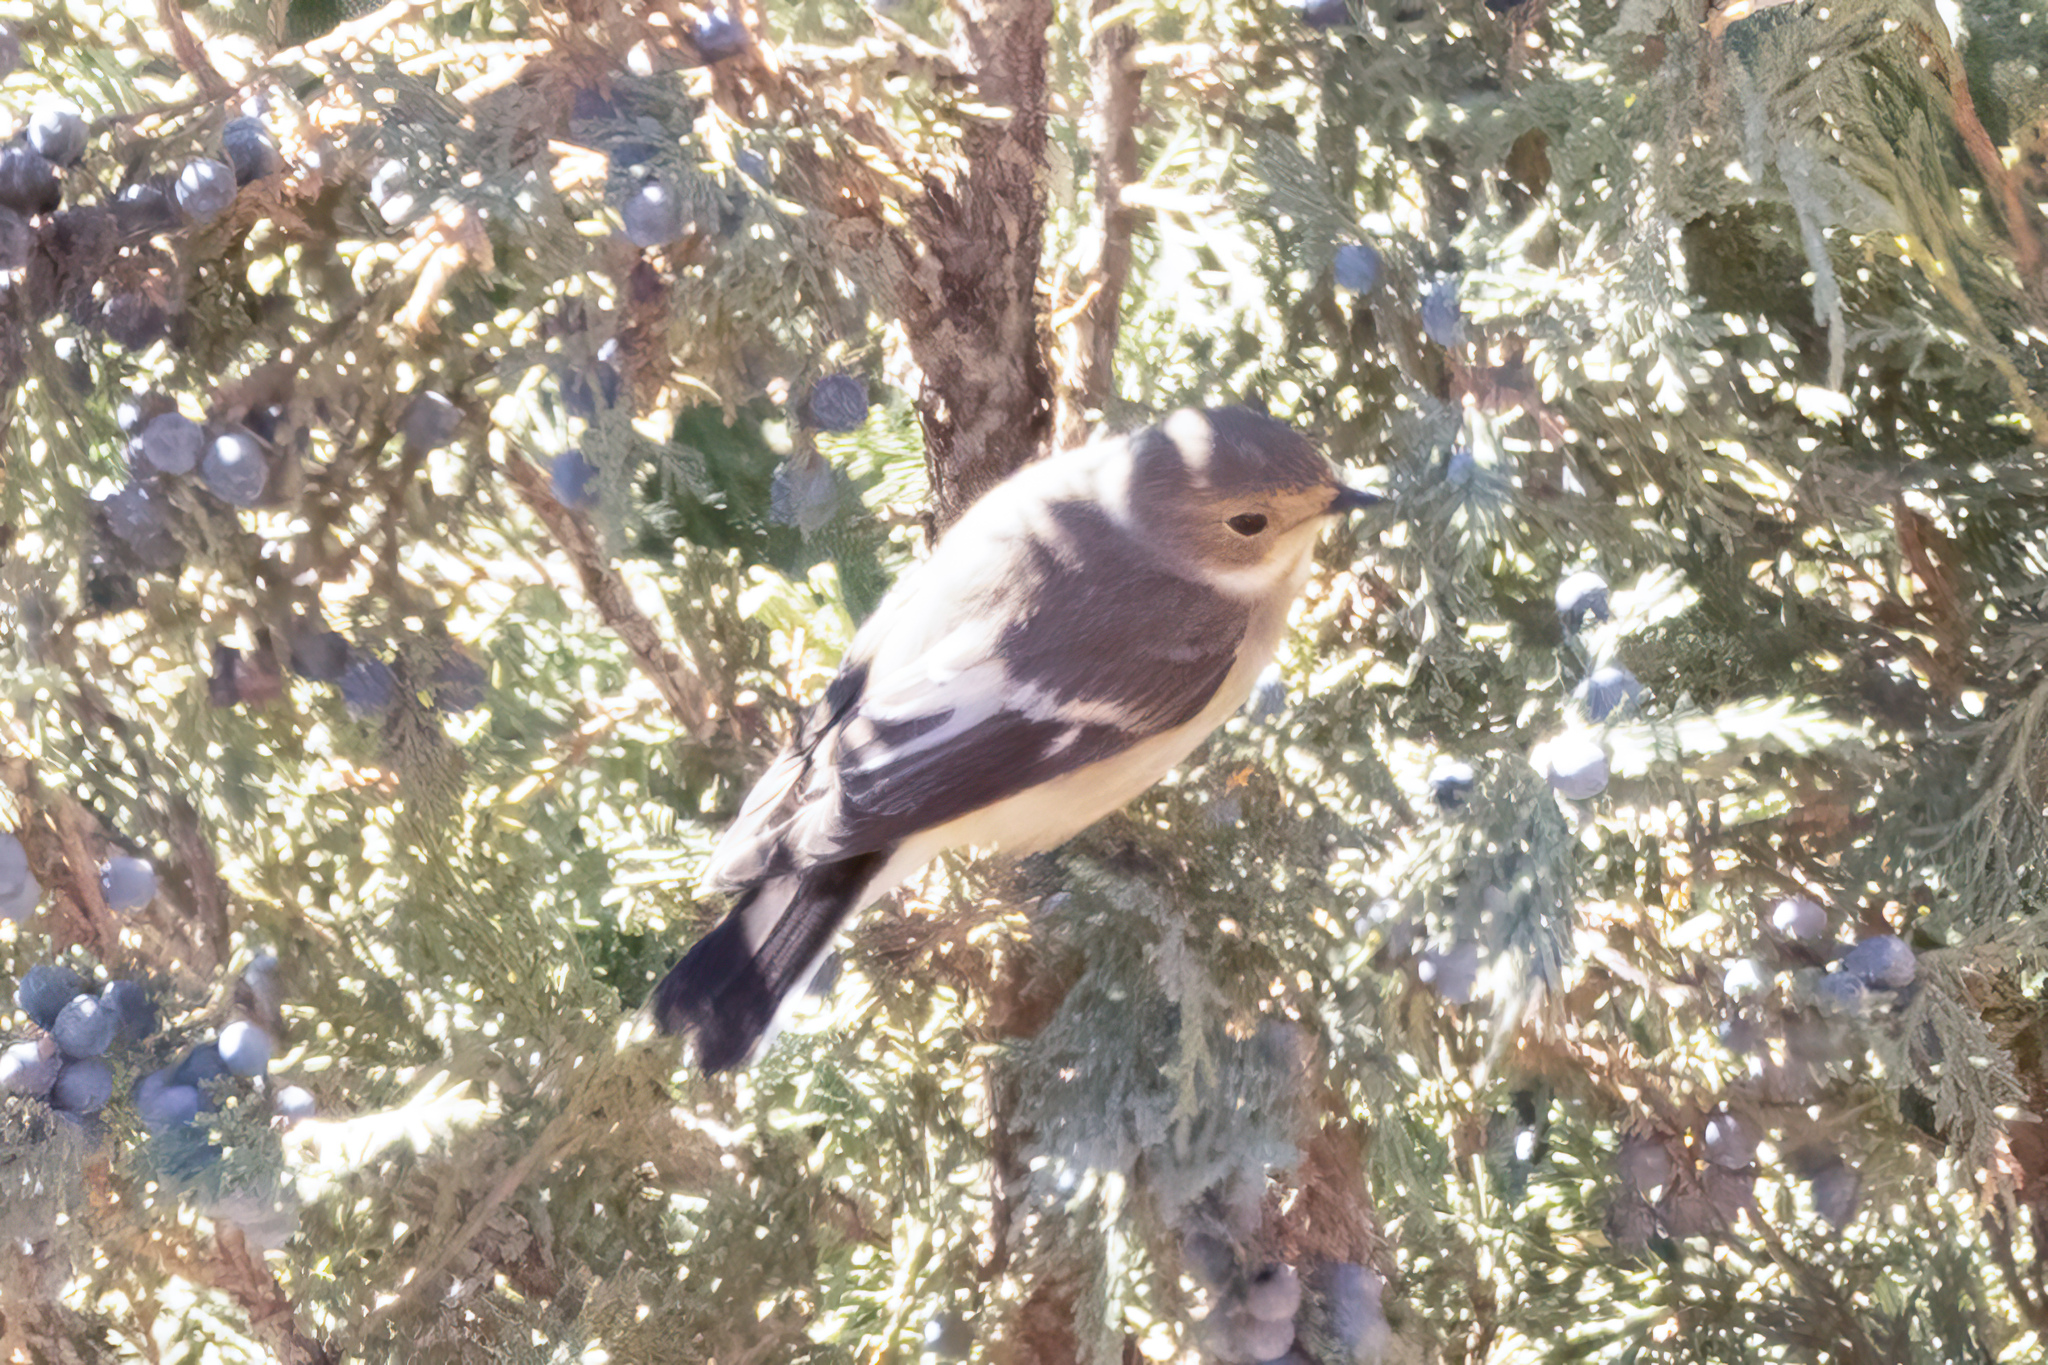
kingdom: Animalia
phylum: Chordata
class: Aves
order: Passeriformes
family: Muscicapidae
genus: Ficedula
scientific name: Ficedula hypoleuca
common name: European pied flycatcher
